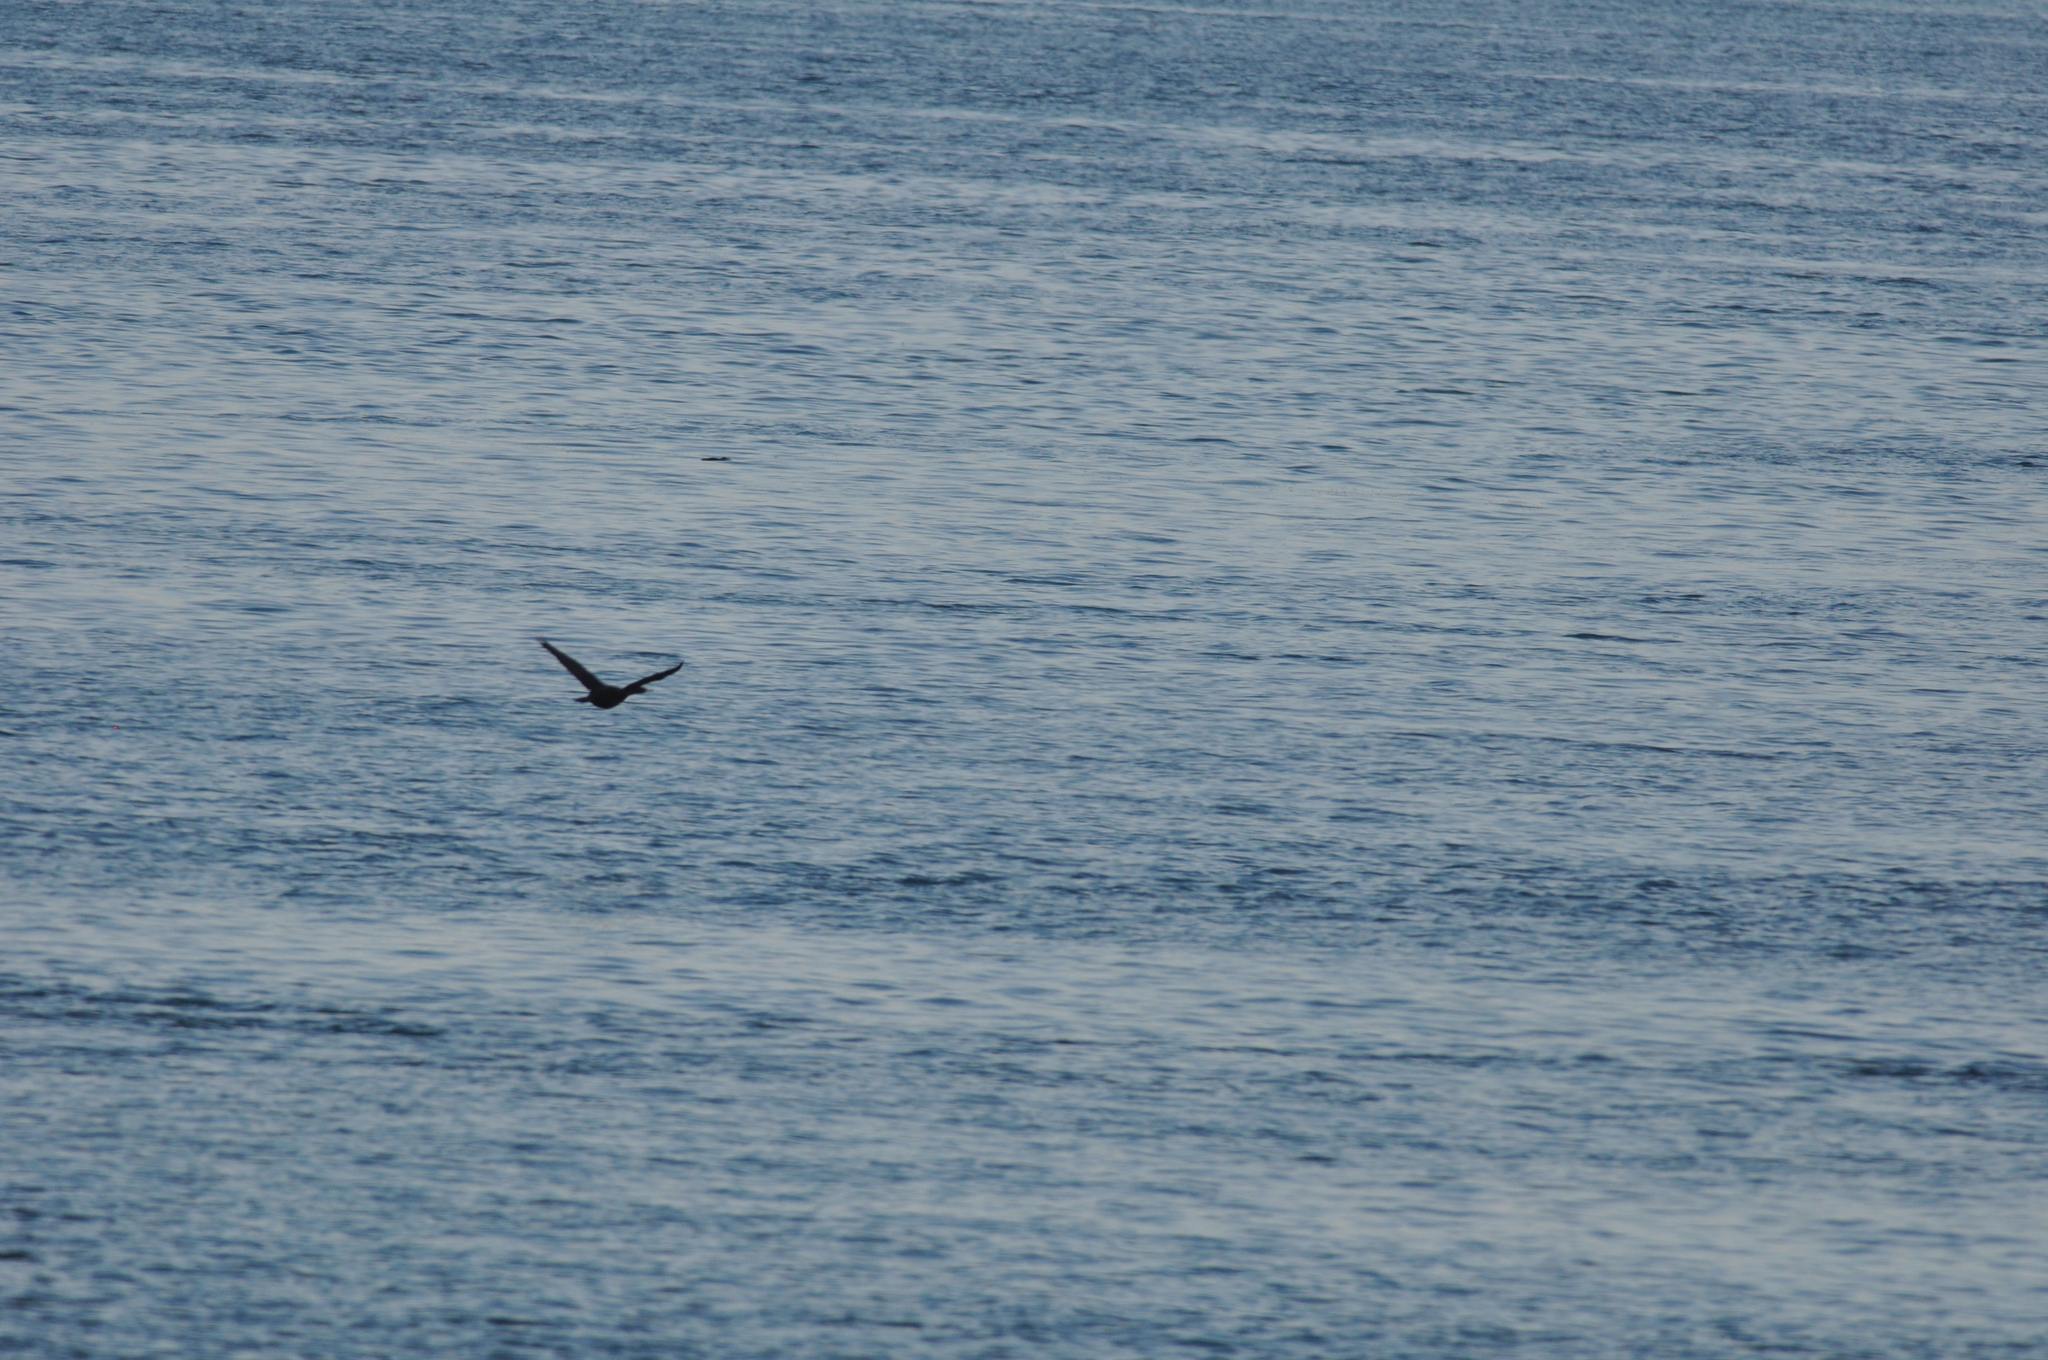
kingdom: Animalia
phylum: Chordata
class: Aves
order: Suliformes
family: Phalacrocoracidae
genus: Phalacrocorax
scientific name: Phalacrocorax pelagicus
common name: Pelagic cormorant
